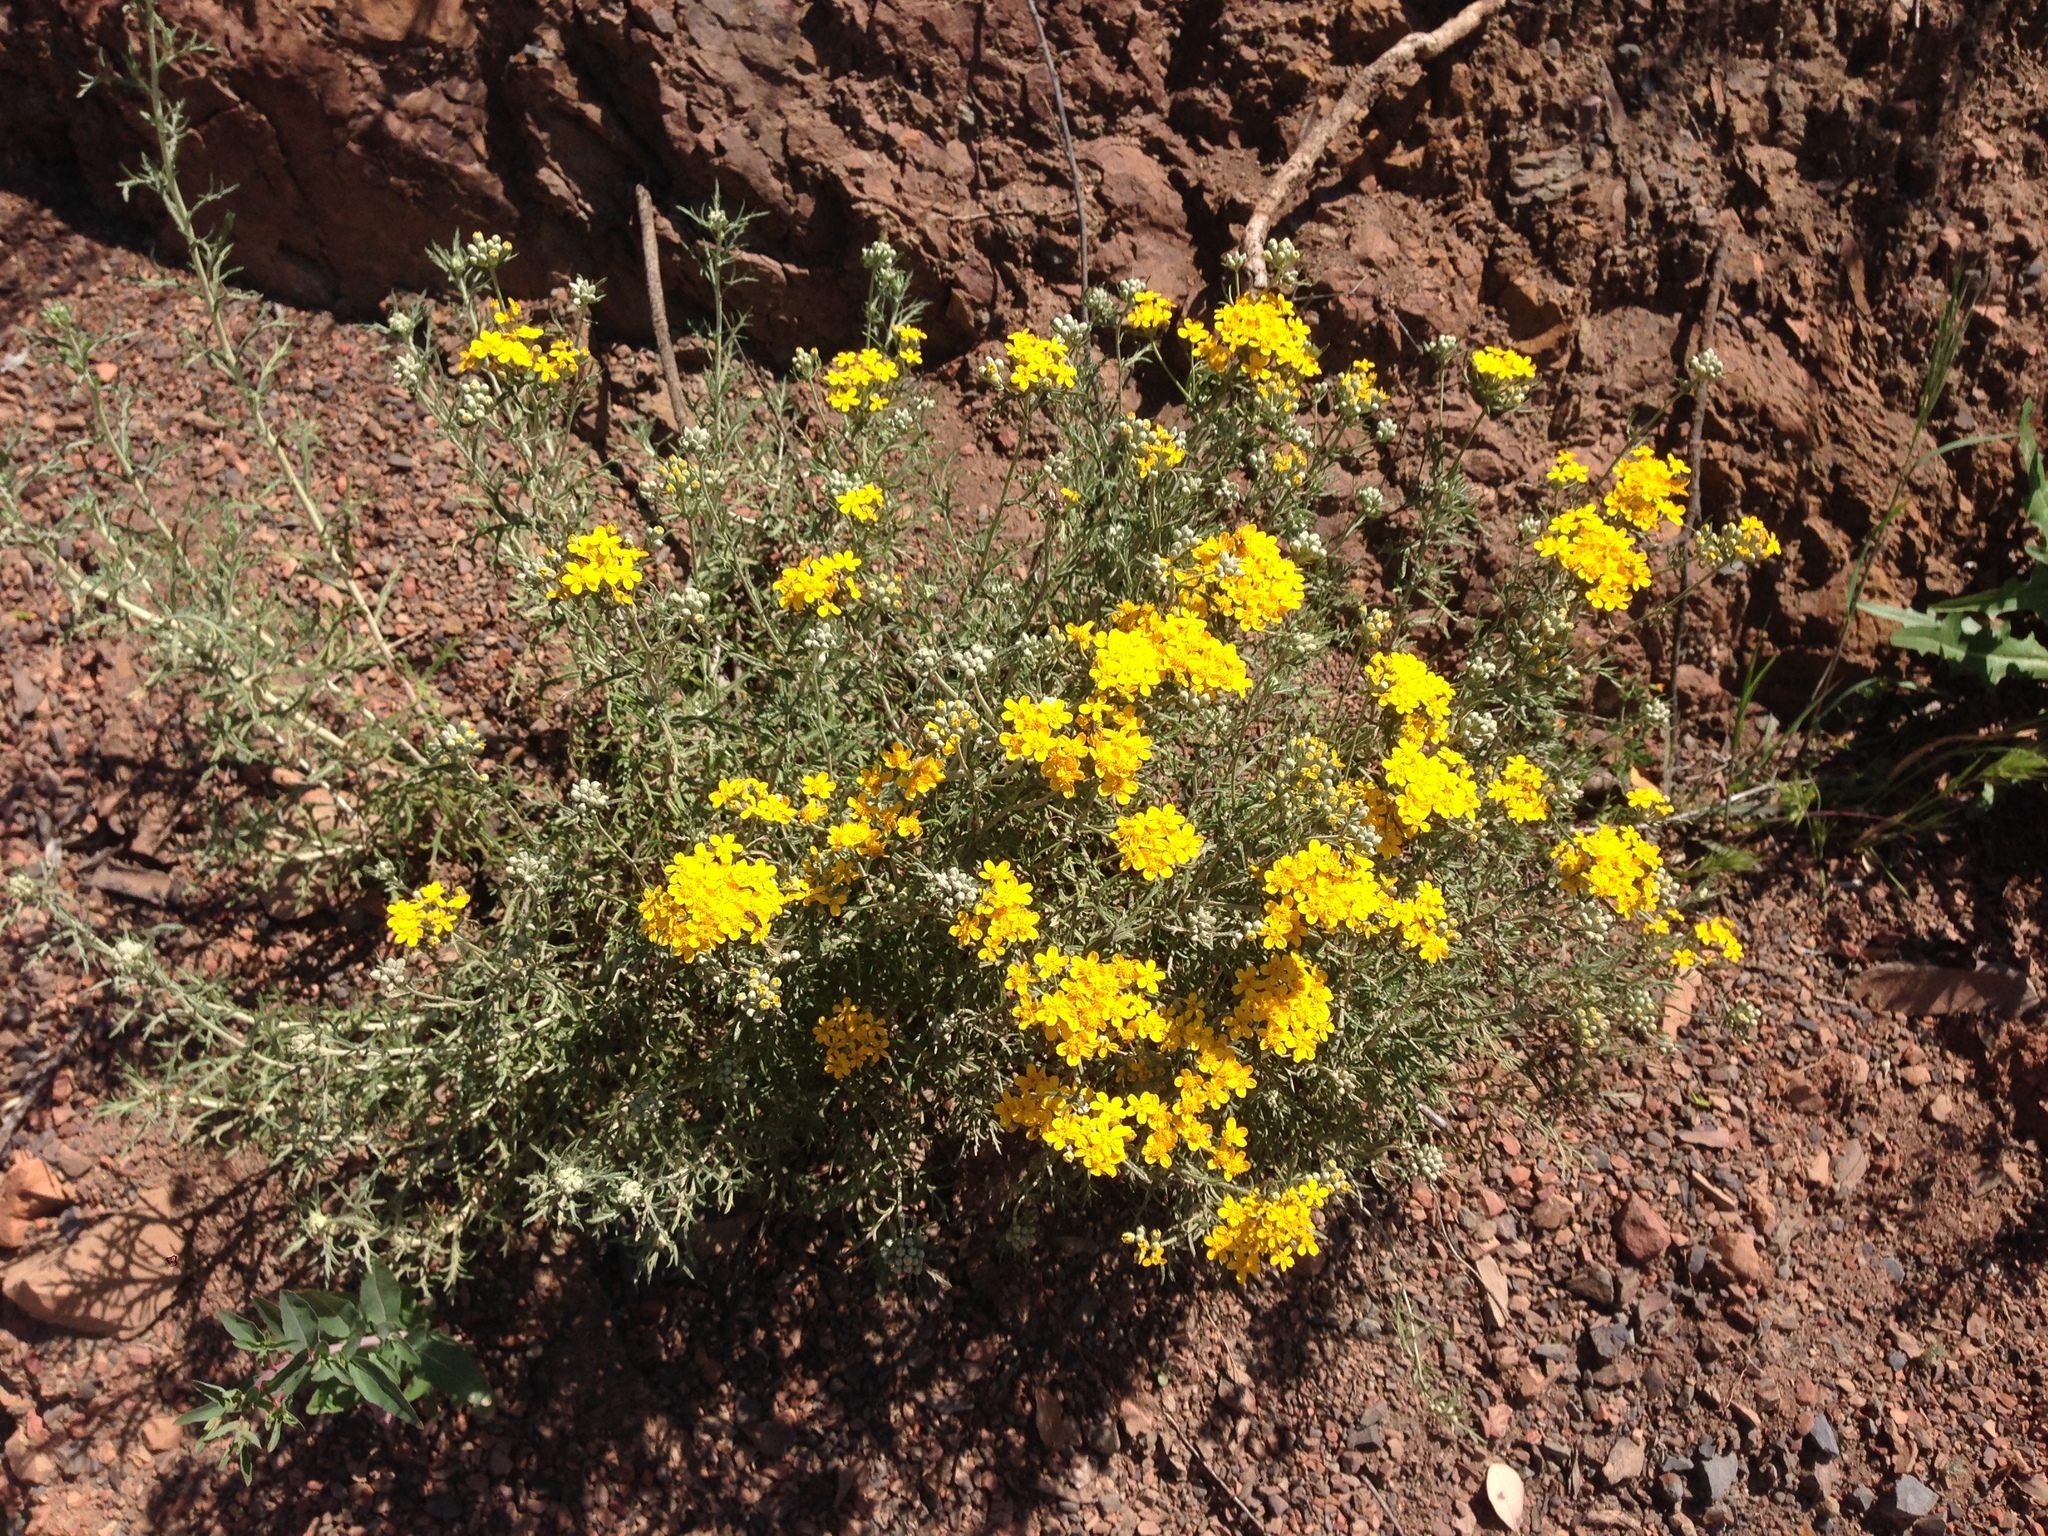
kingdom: Plantae
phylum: Tracheophyta
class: Magnoliopsida
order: Asterales
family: Asteraceae
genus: Eriophyllum
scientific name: Eriophyllum confertiflorum
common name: Golden-yarrow
